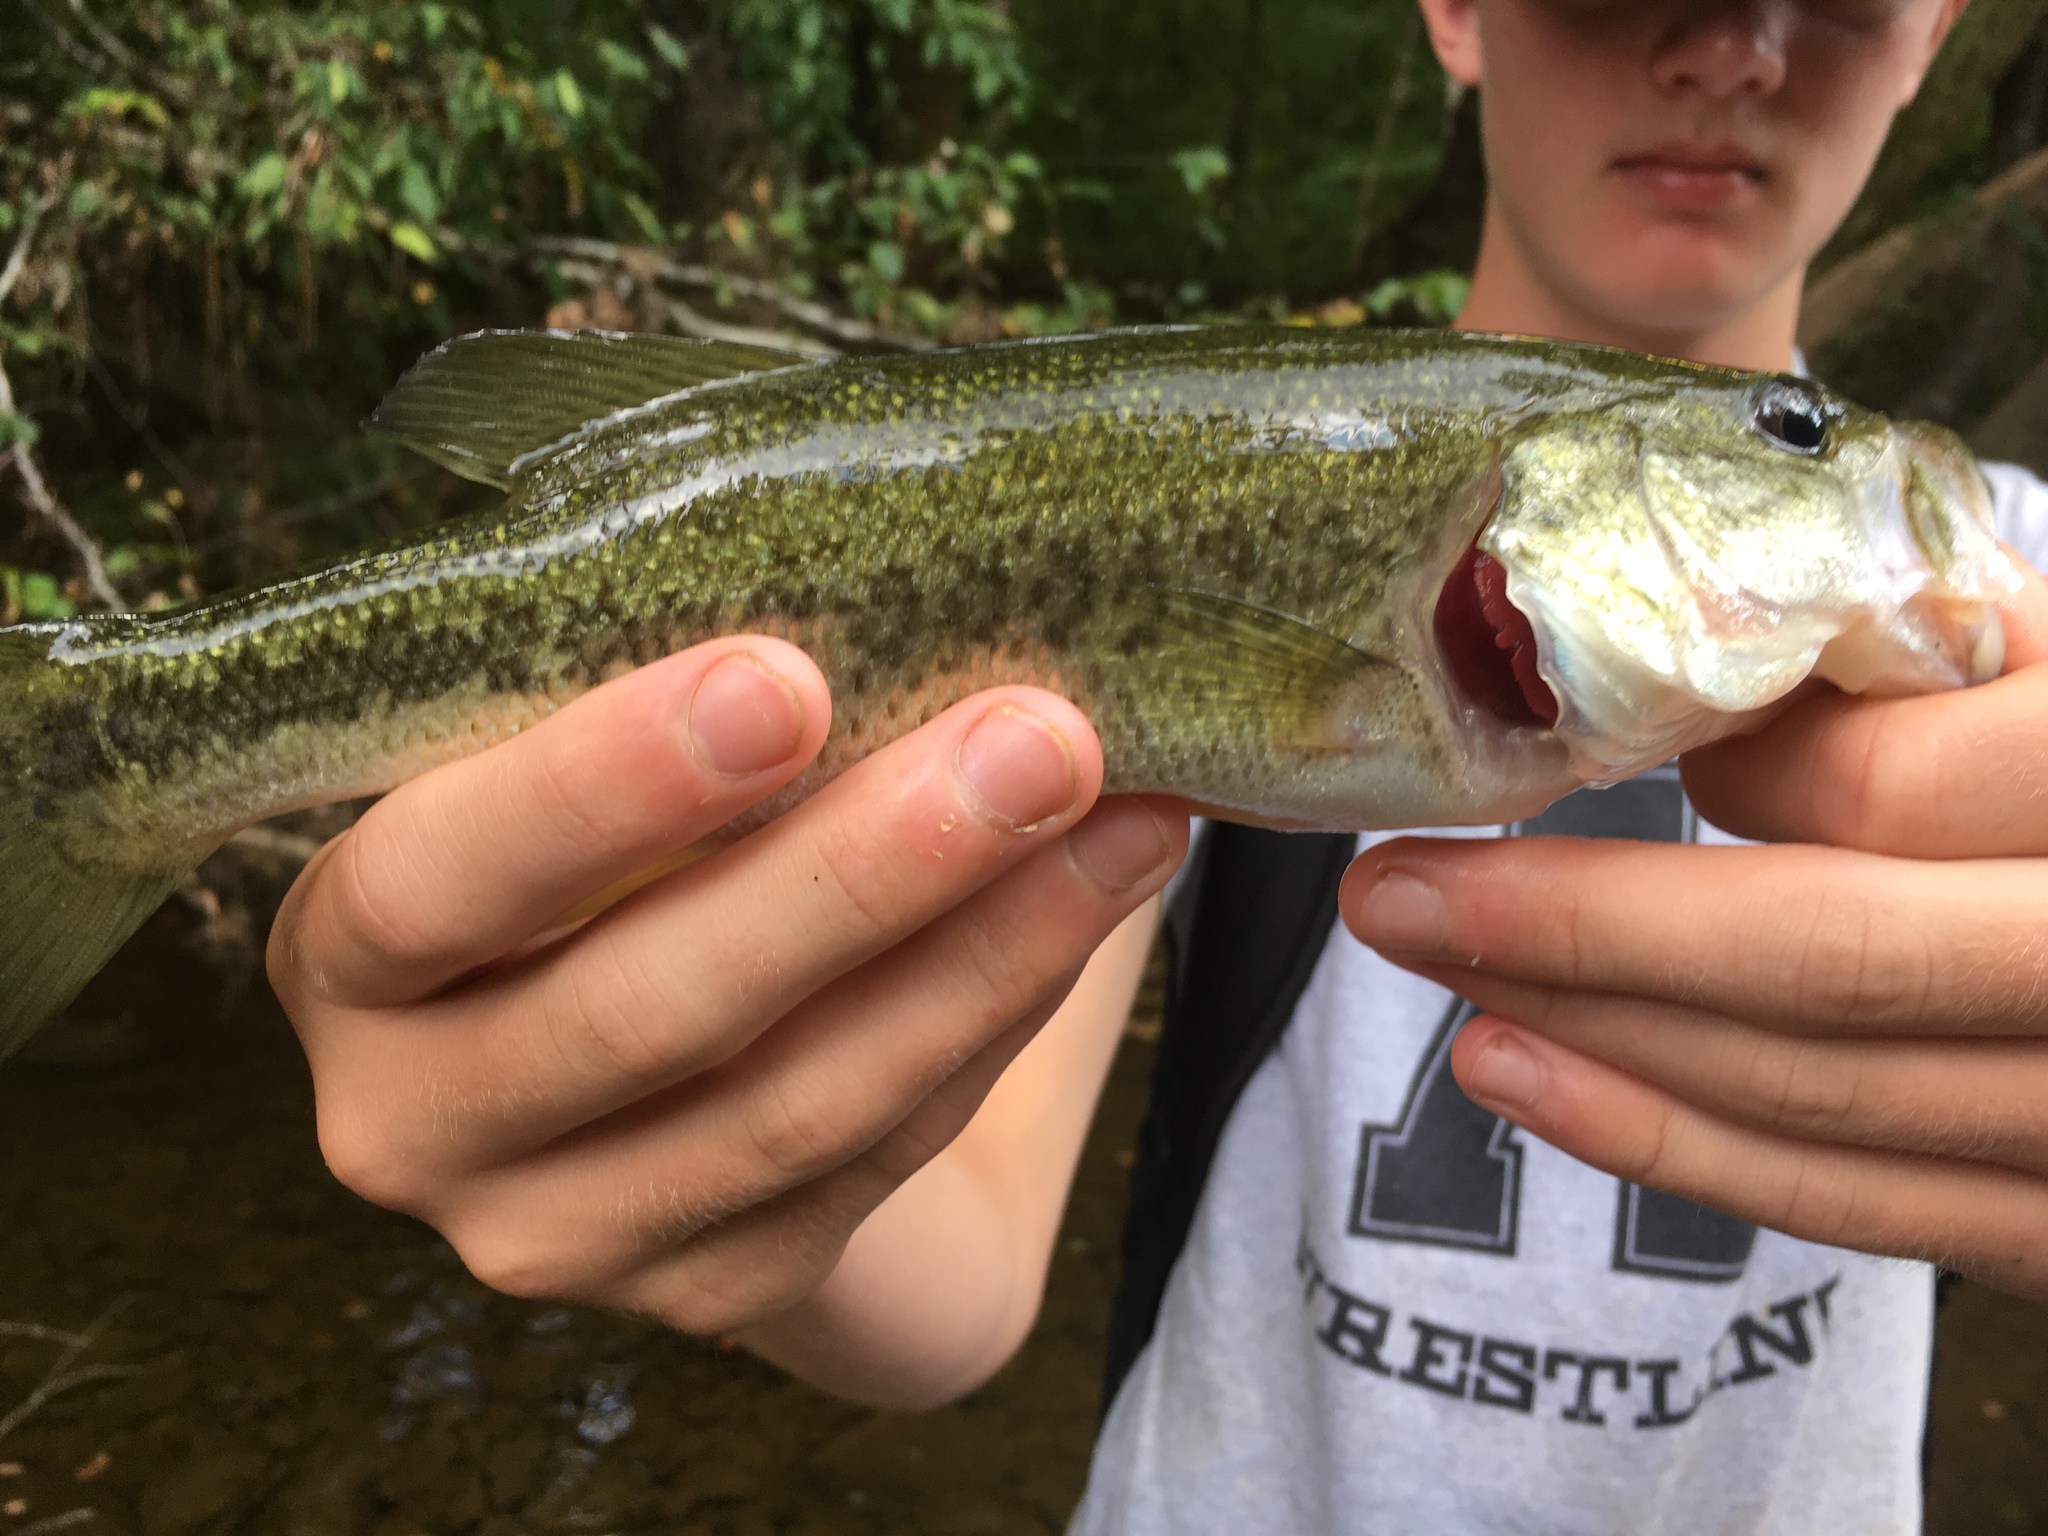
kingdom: Animalia
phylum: Chordata
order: Perciformes
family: Centrarchidae
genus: Micropterus
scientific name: Micropterus salmoides
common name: Largemouth bass
